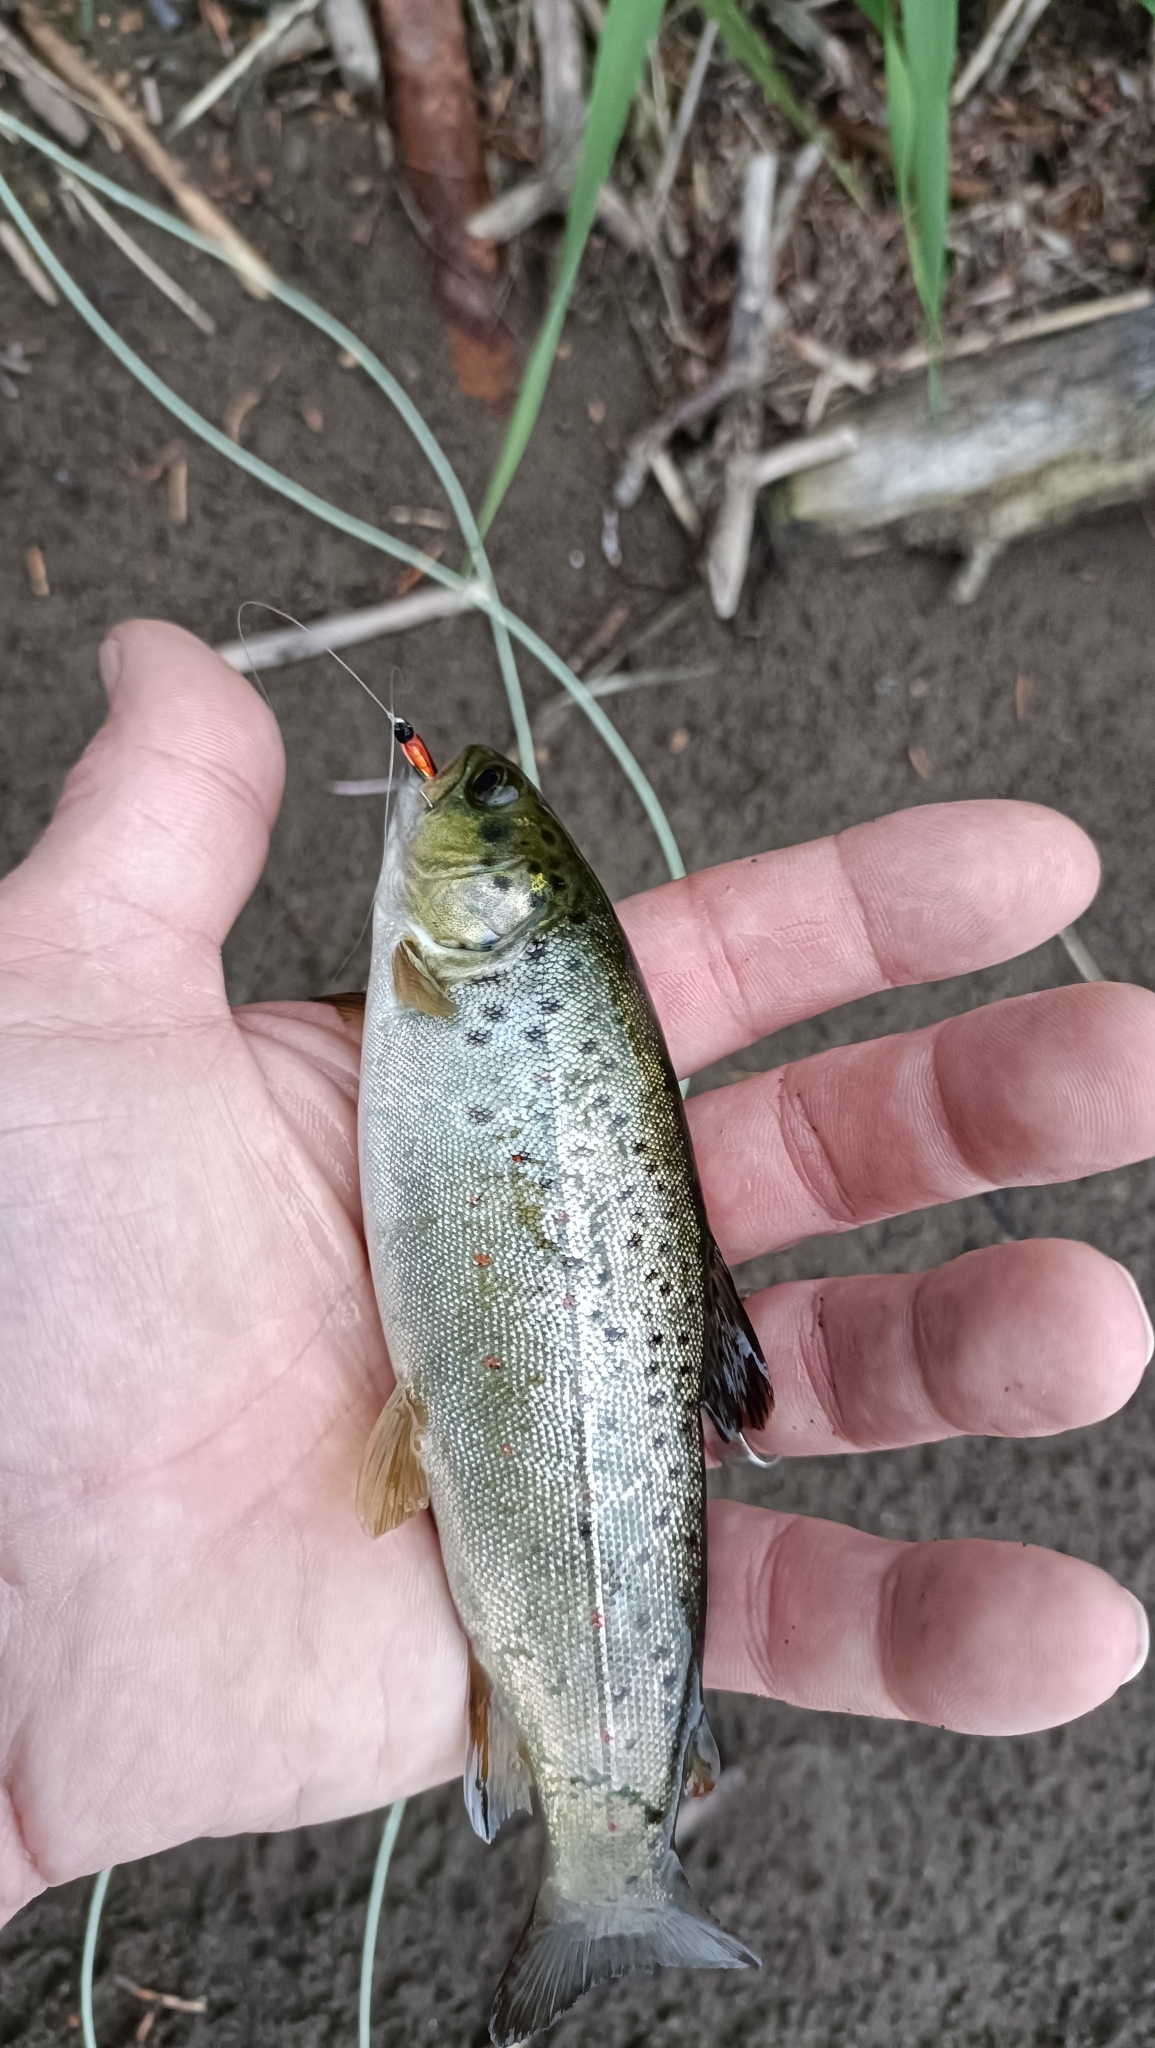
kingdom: Animalia
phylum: Chordata
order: Salmoniformes
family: Salmonidae
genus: Salmo
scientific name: Salmo trutta
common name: Brown trout
